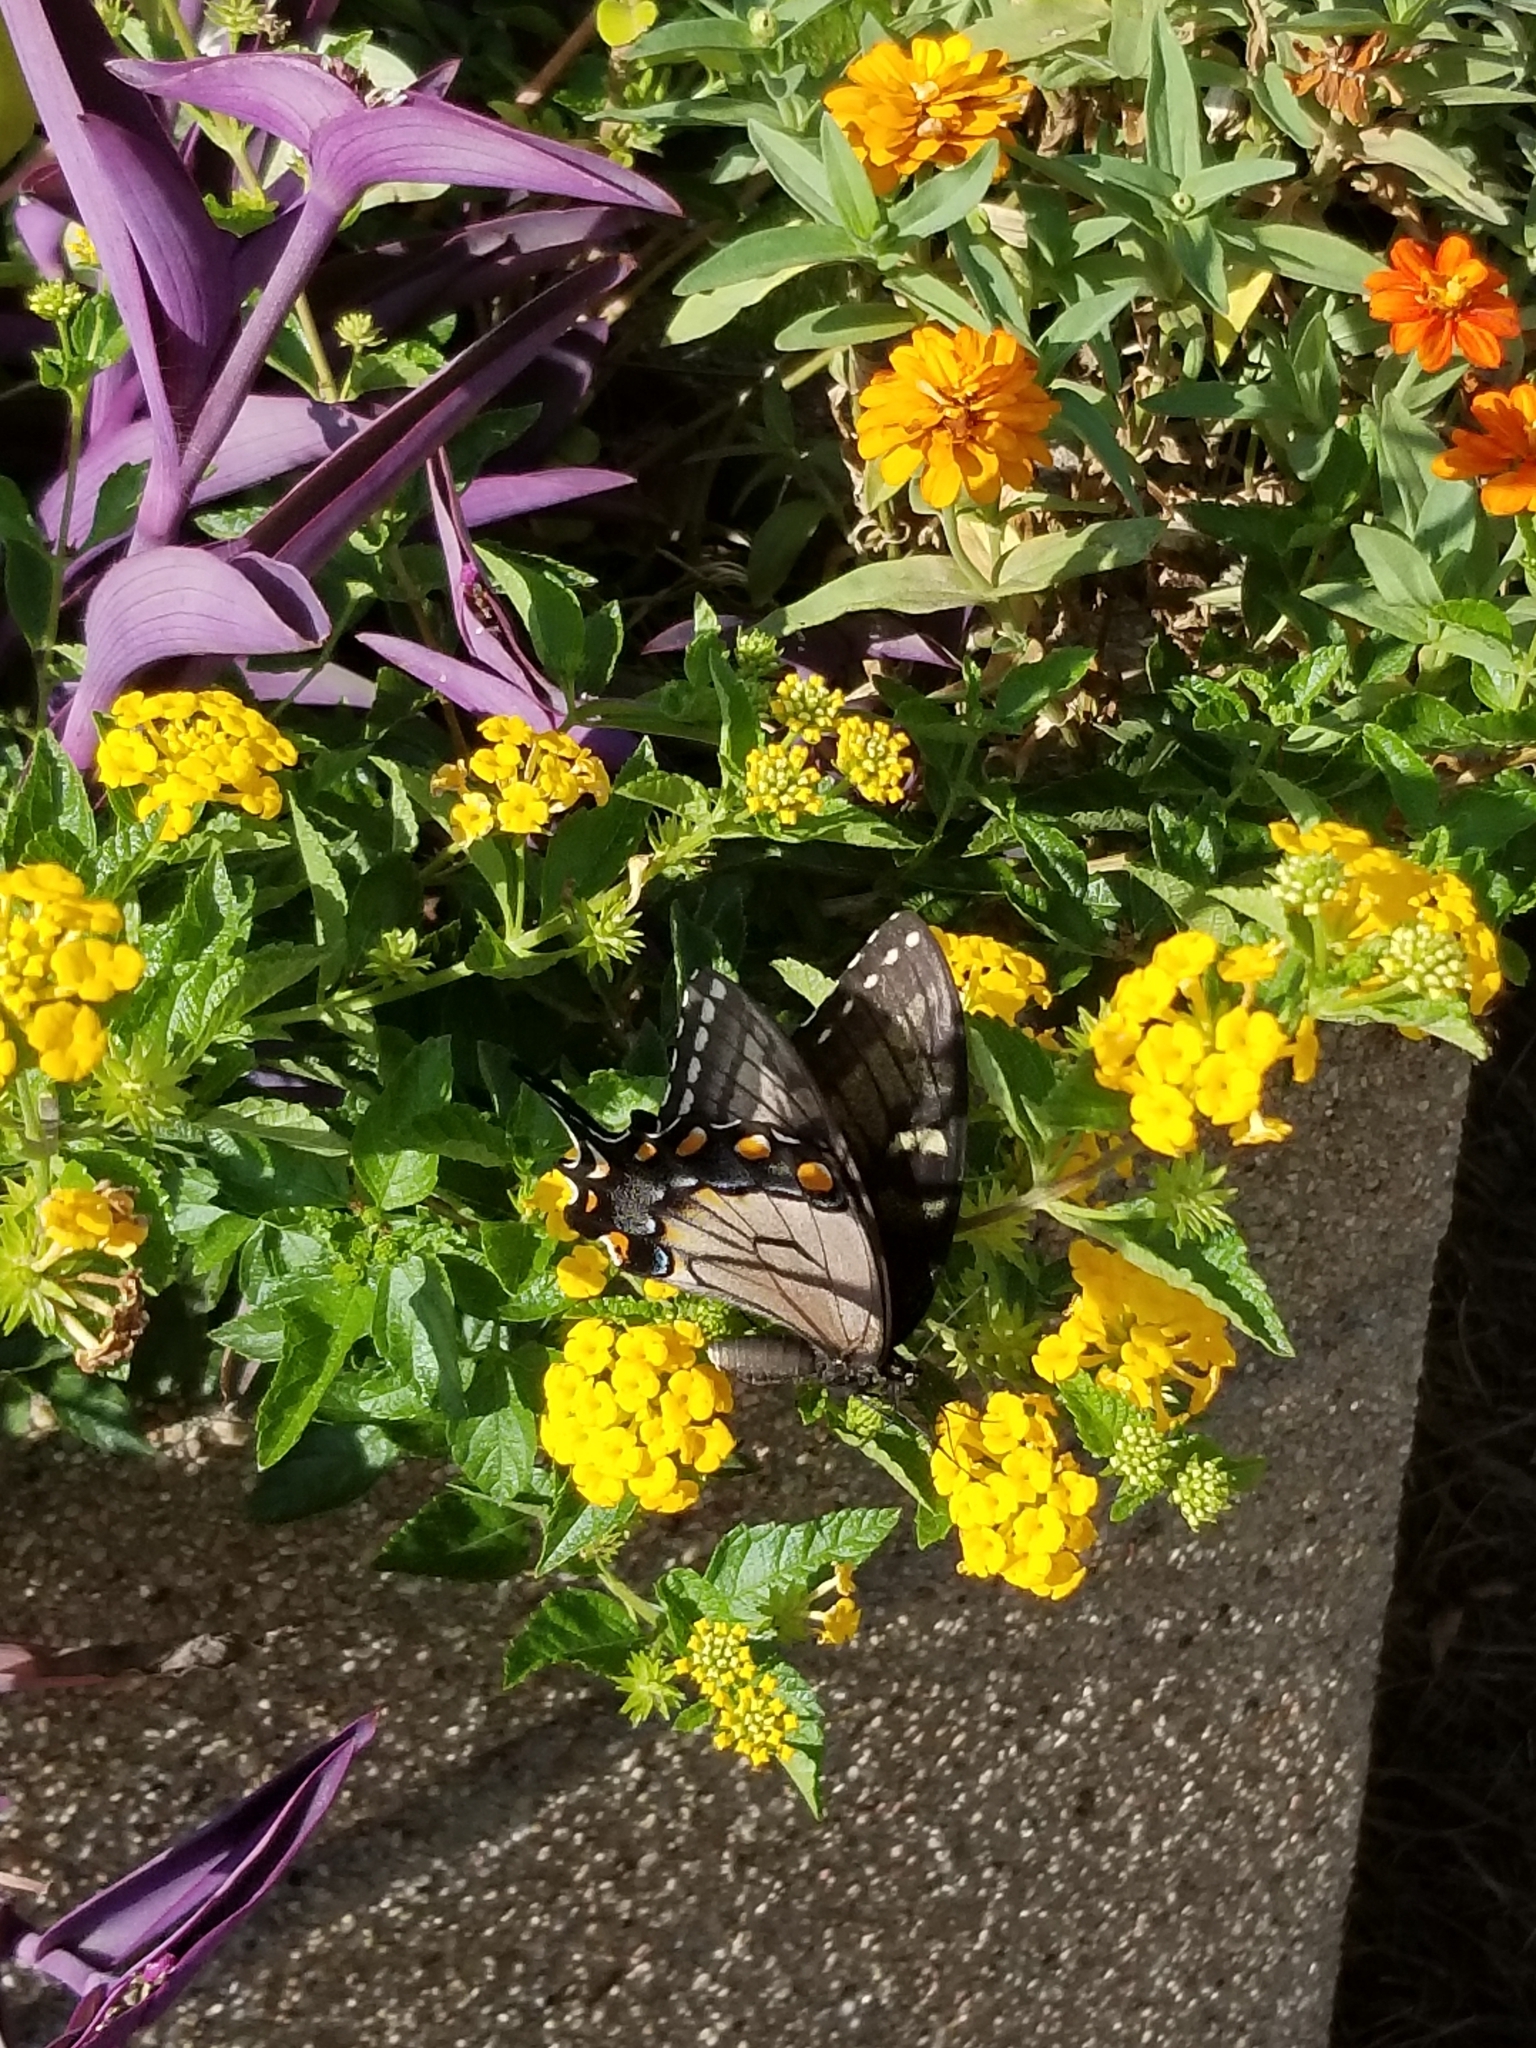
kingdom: Animalia
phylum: Arthropoda
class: Insecta
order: Lepidoptera
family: Papilionidae
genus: Papilio
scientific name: Papilio glaucus
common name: Tiger swallowtail
